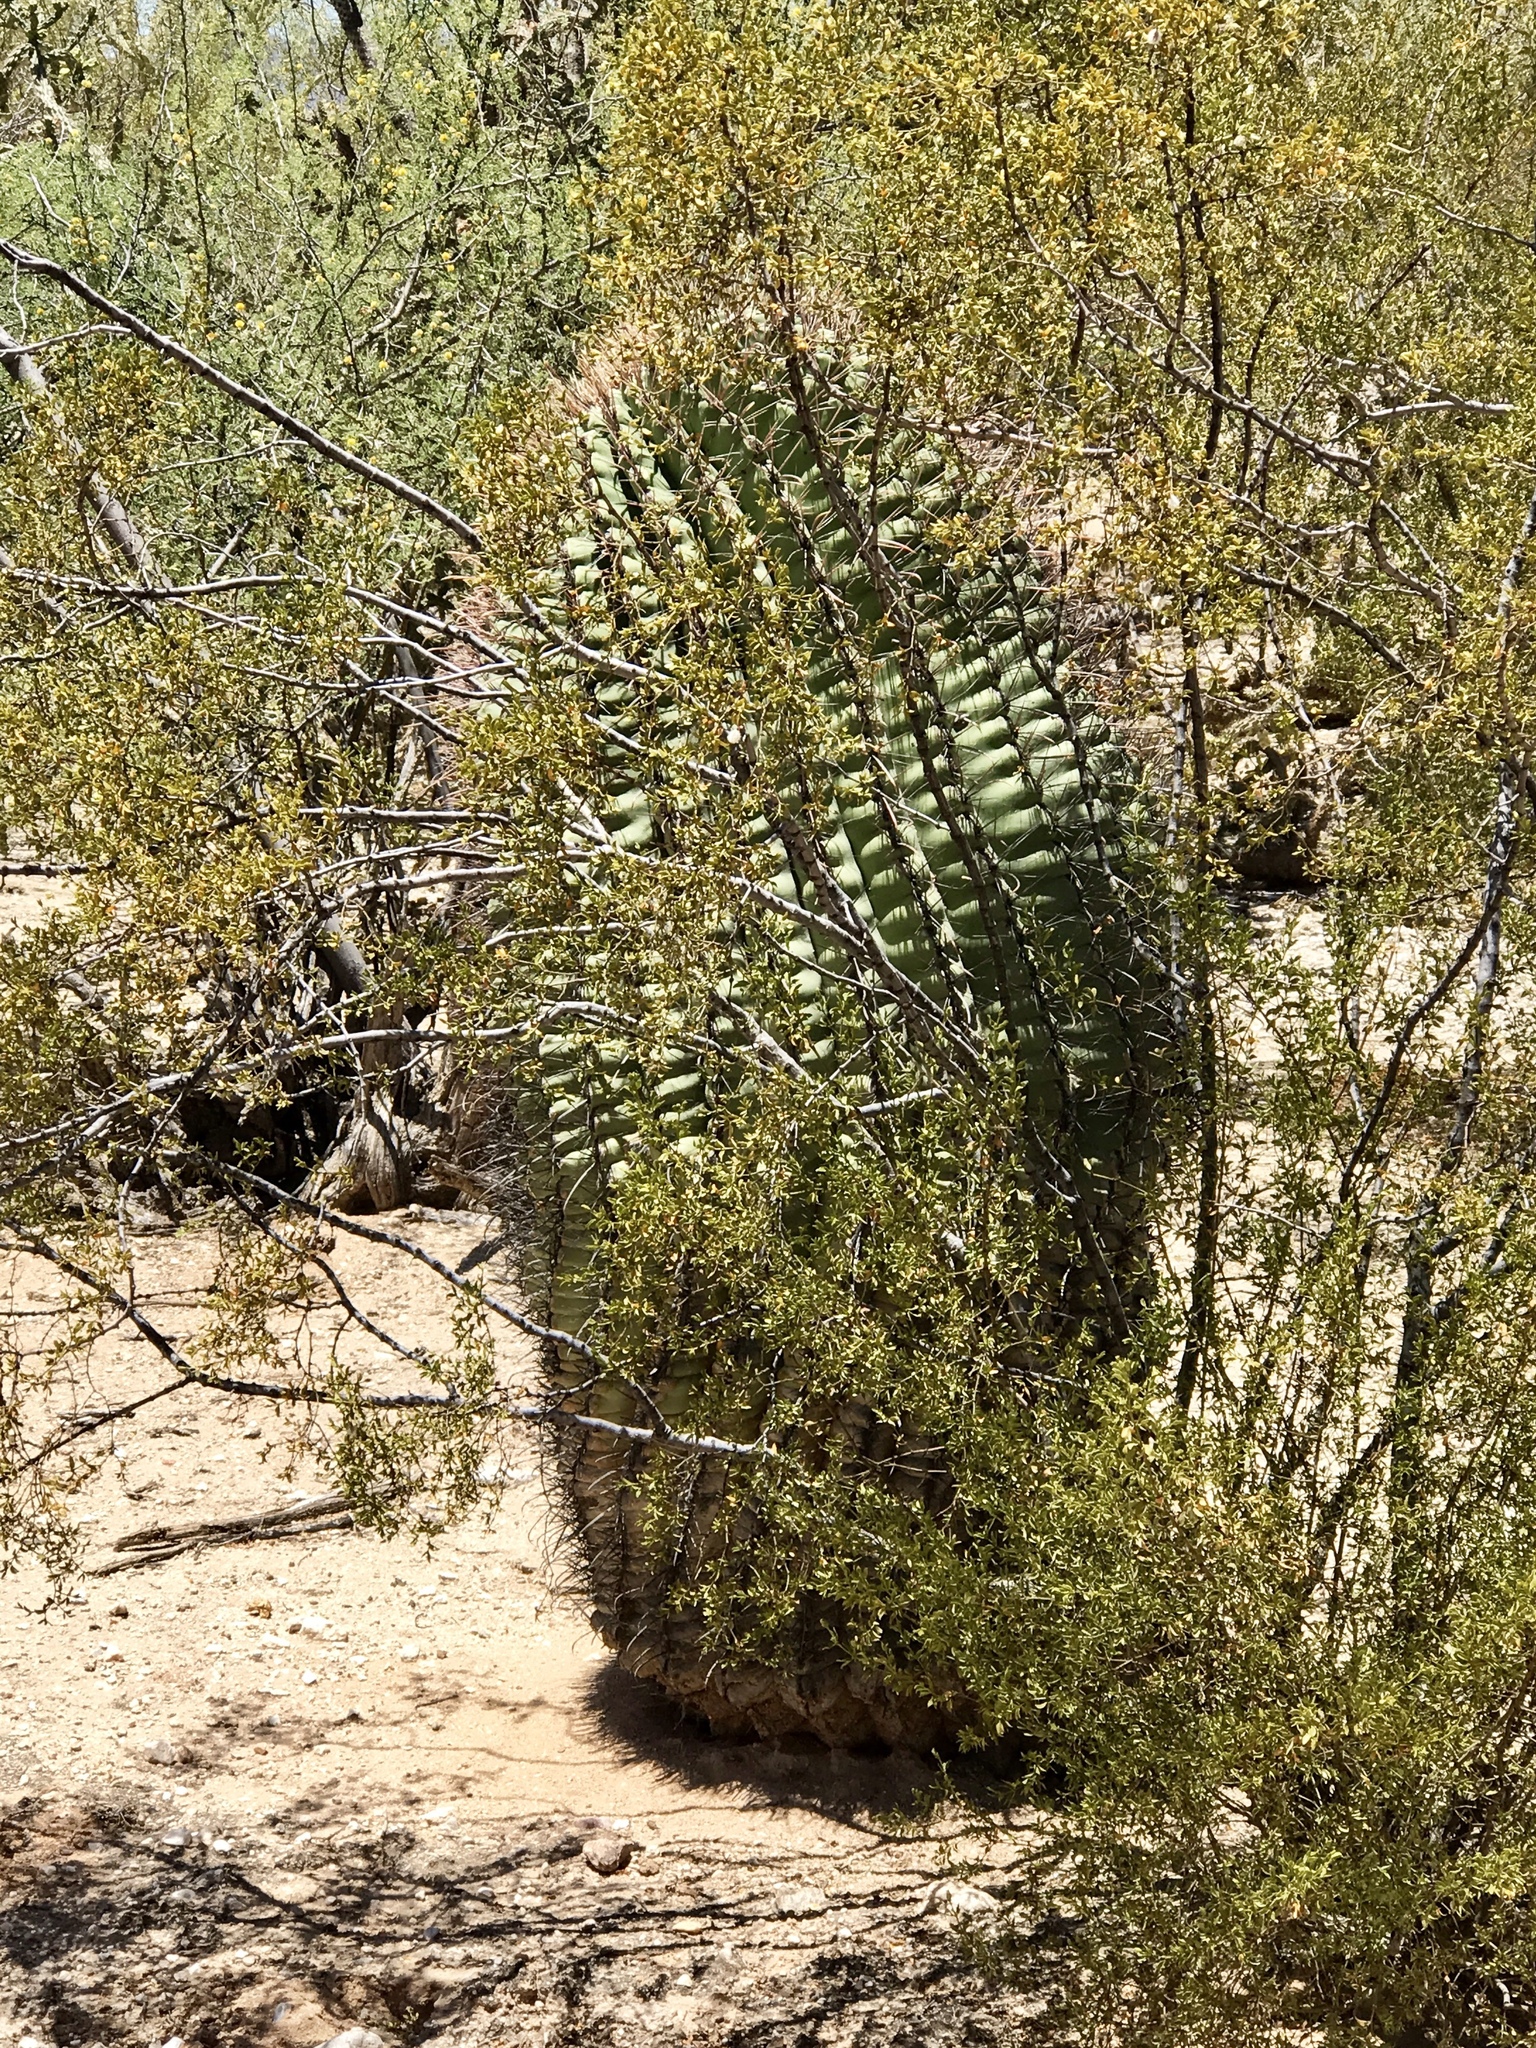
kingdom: Plantae
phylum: Tracheophyta
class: Magnoliopsida
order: Caryophyllales
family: Cactaceae
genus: Ferocactus
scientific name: Ferocactus wislizeni
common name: Candy barrel cactus
